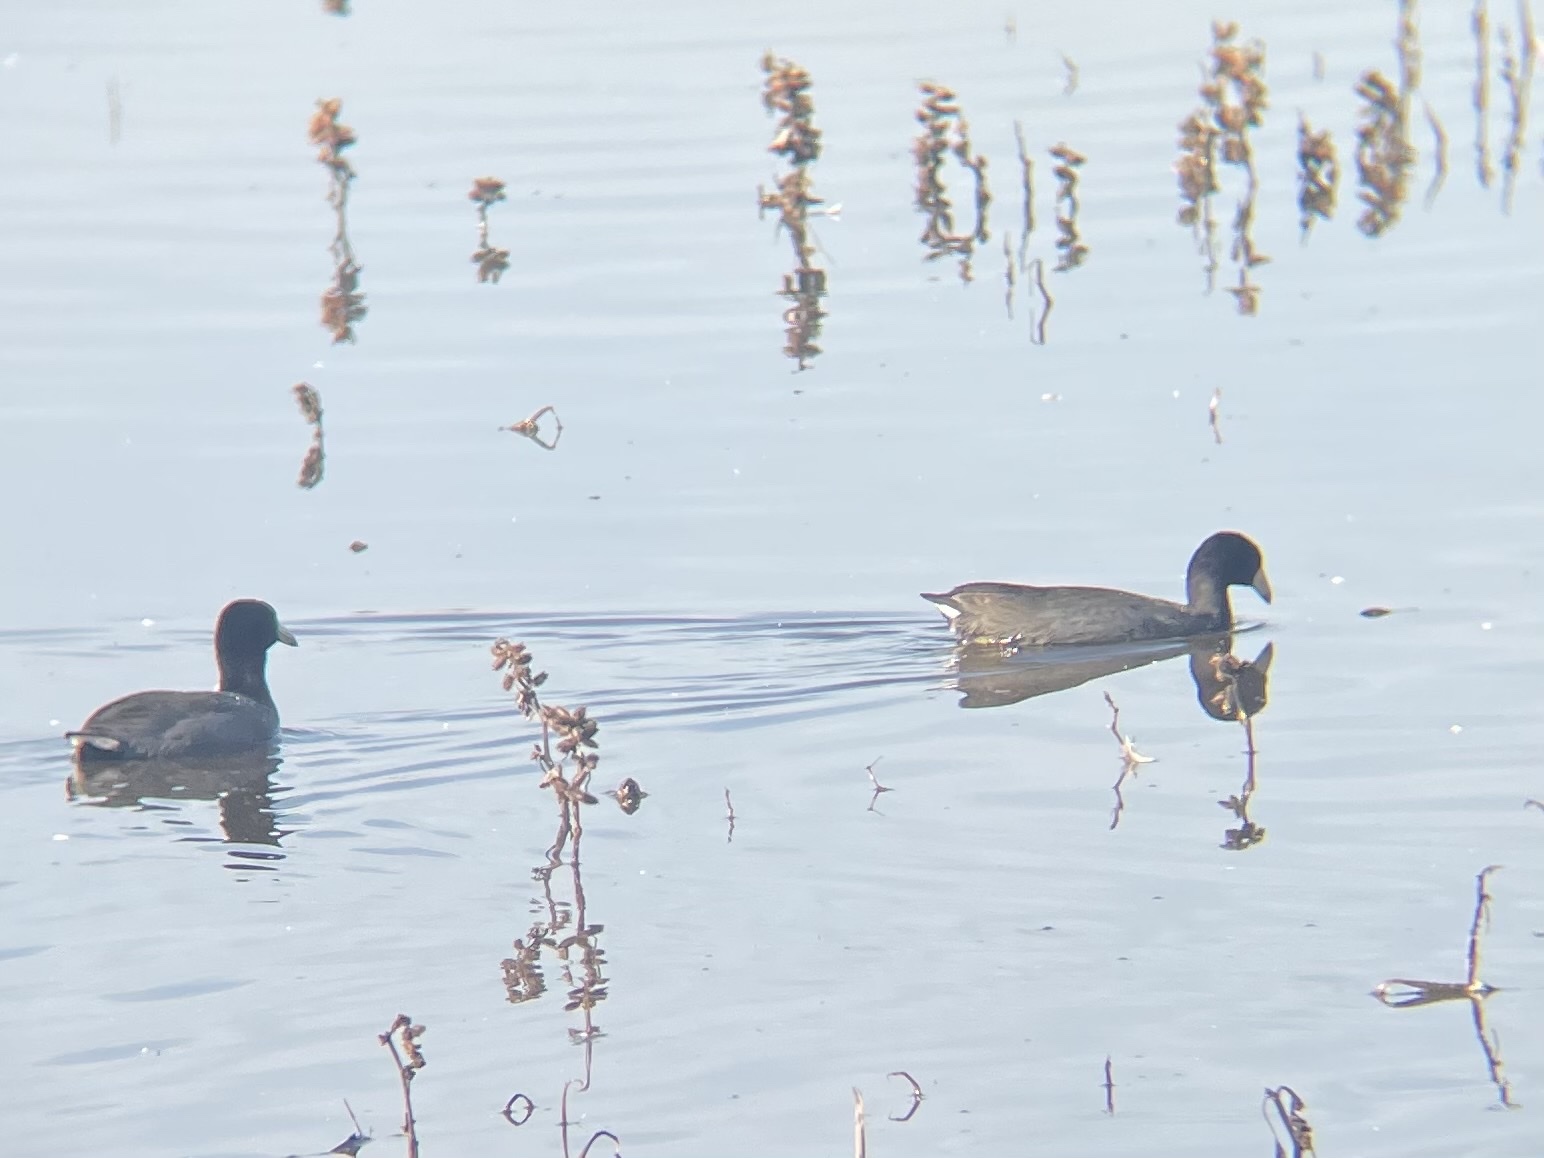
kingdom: Animalia
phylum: Chordata
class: Aves
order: Gruiformes
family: Rallidae
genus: Fulica
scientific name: Fulica americana
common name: American coot
